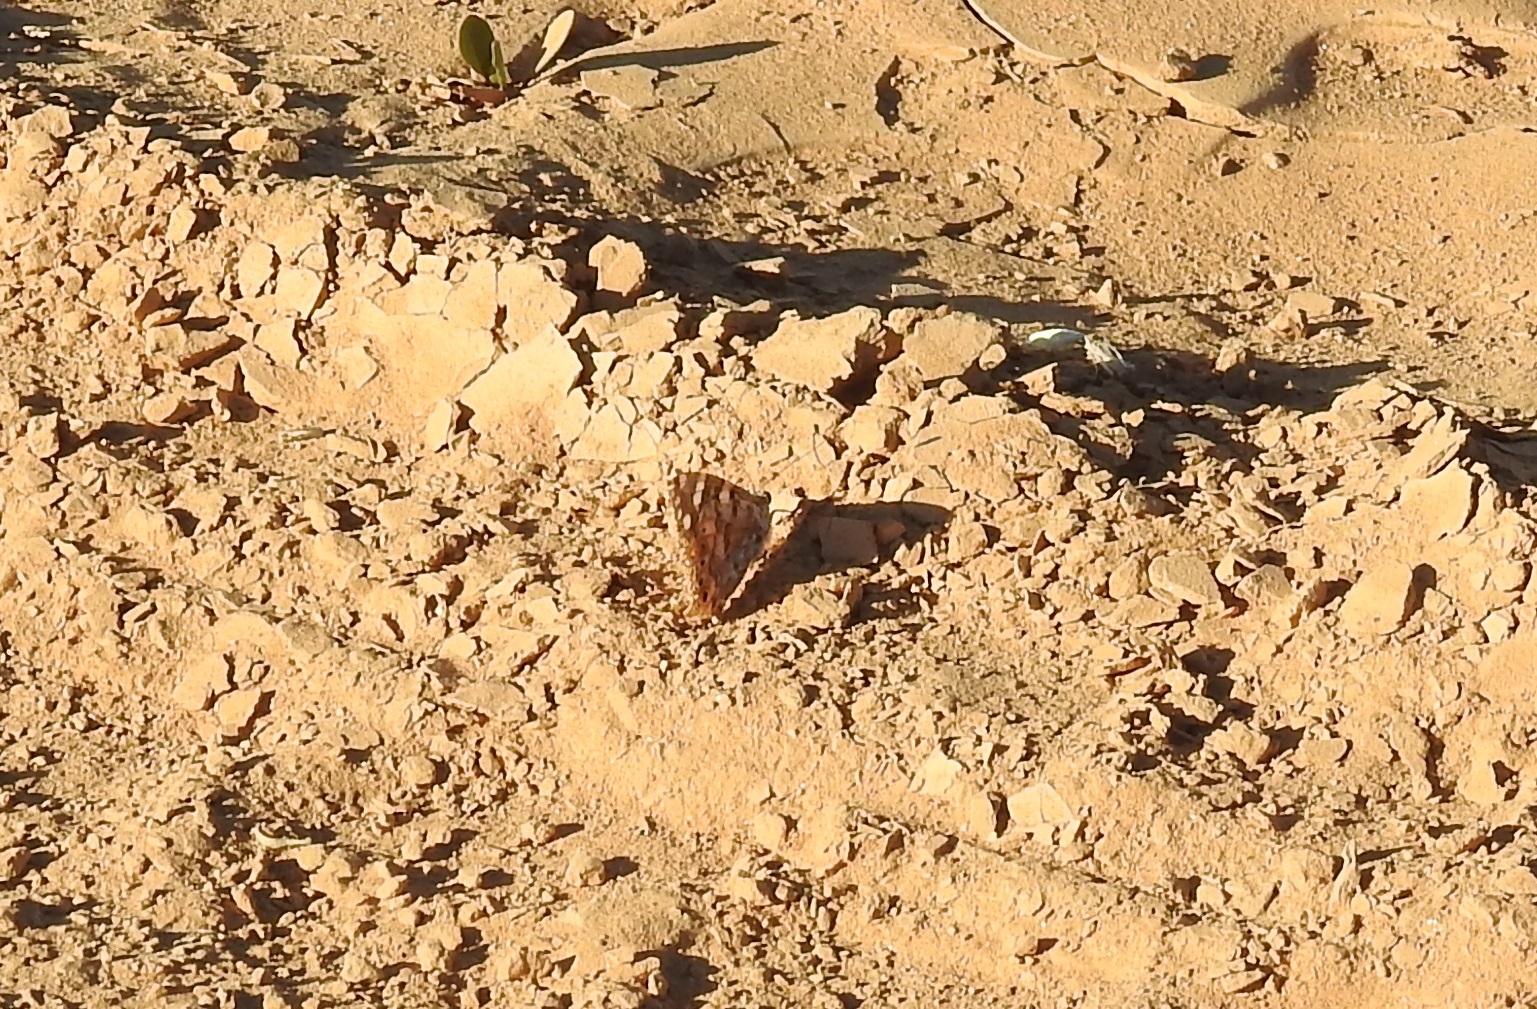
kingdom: Animalia
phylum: Arthropoda
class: Insecta
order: Lepidoptera
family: Nymphalidae
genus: Vanessa
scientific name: Vanessa cardui
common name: Painted lady
